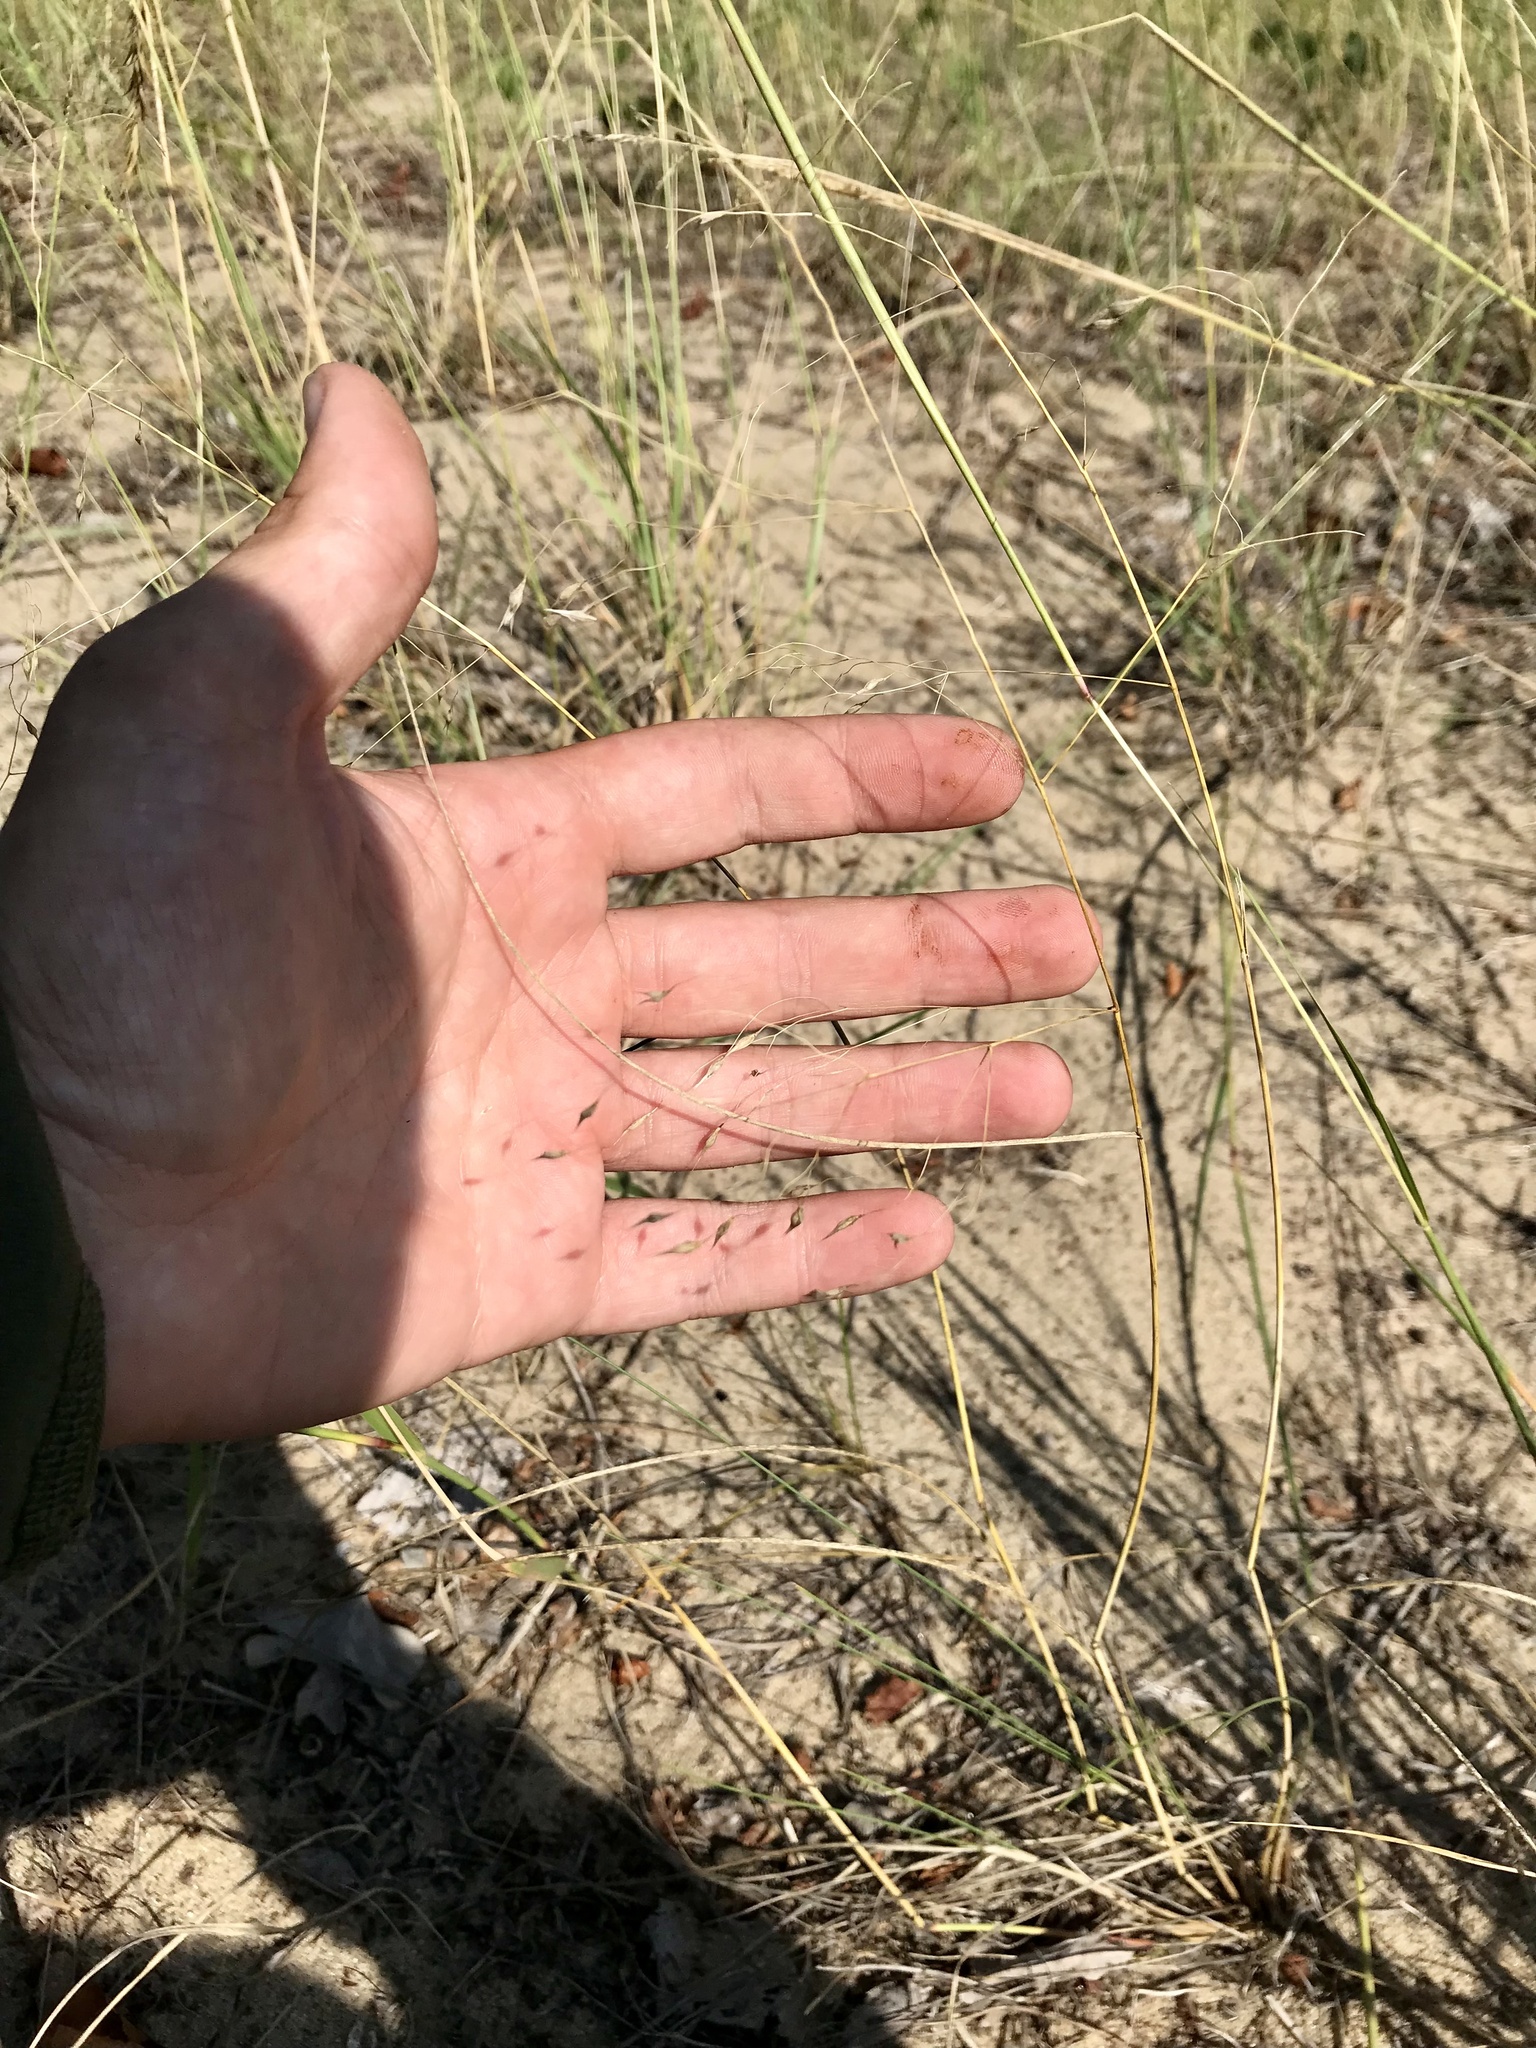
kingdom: Plantae
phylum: Tracheophyta
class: Liliopsida
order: Poales
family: Poaceae
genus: Eriocoma
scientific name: Eriocoma hymenoides
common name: Indian mountain ricegrass
